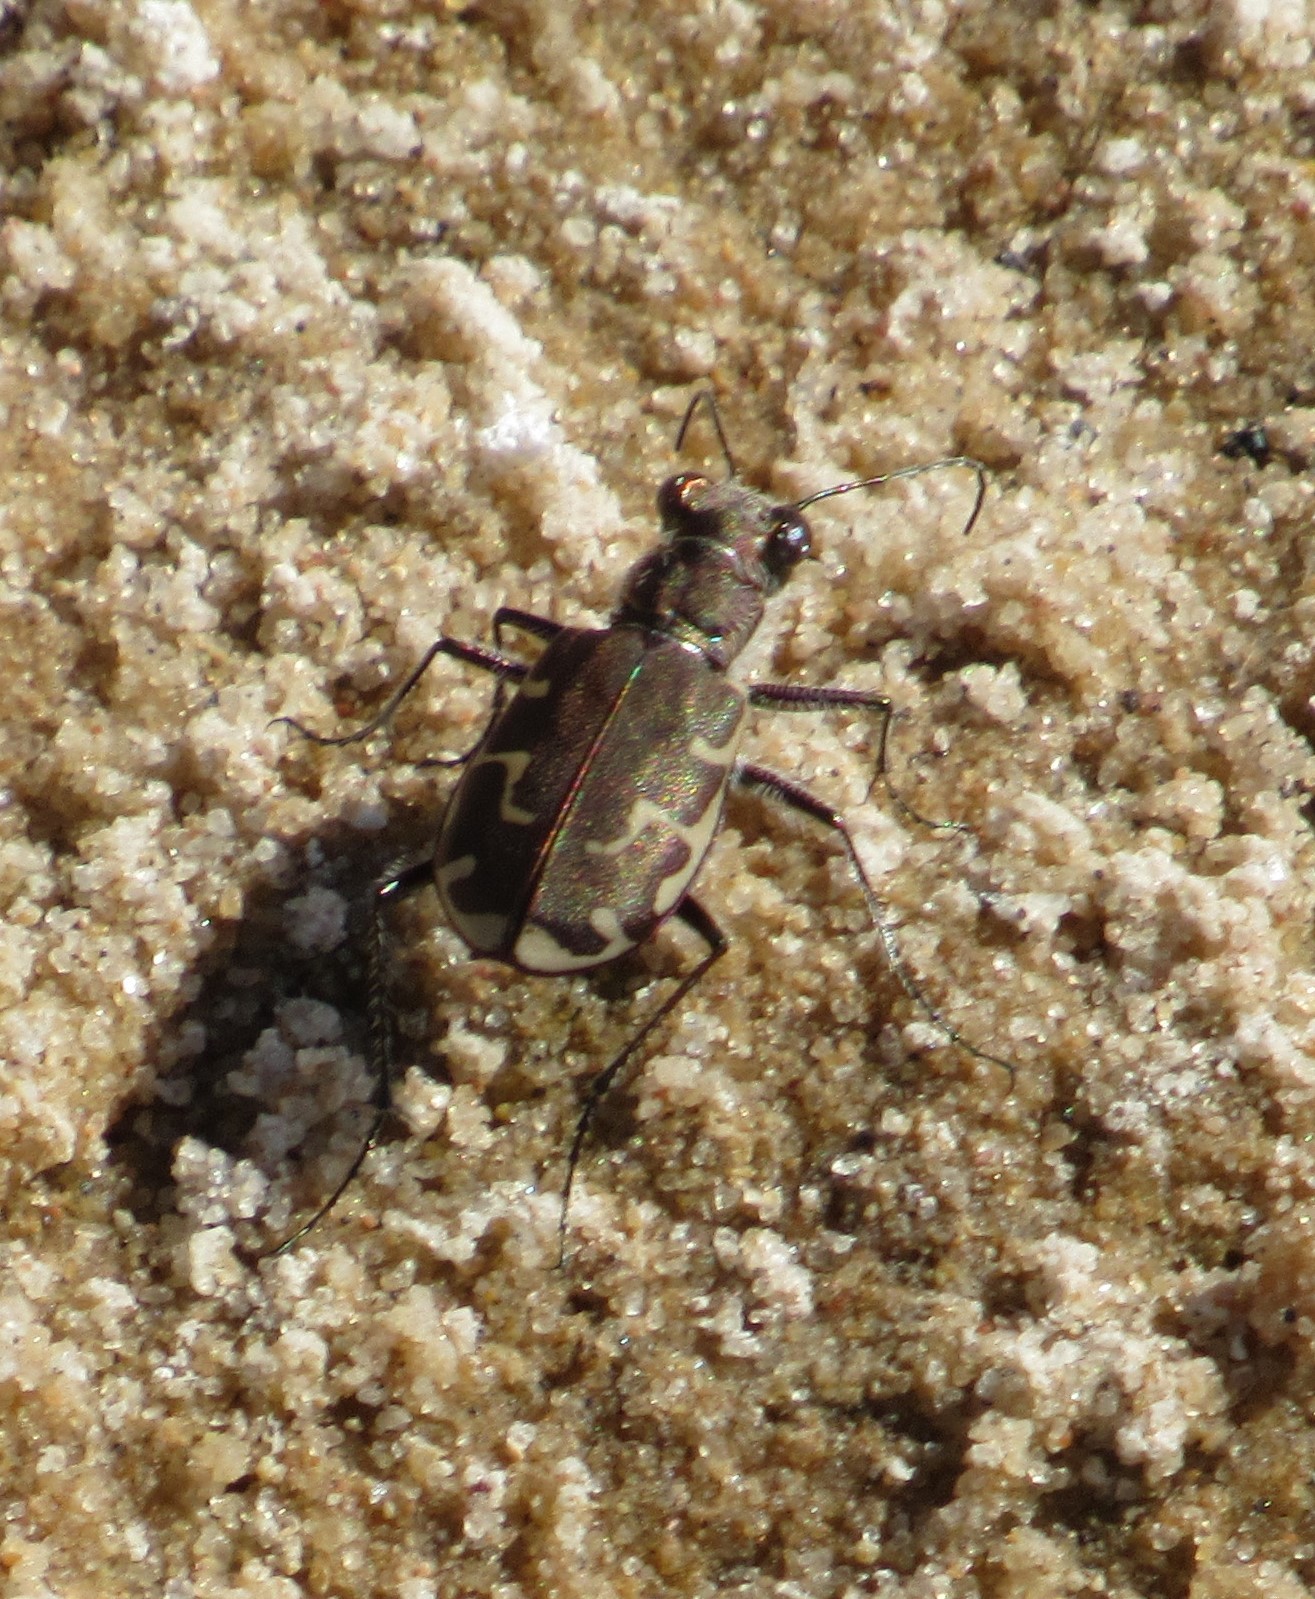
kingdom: Animalia
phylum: Arthropoda
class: Insecta
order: Coleoptera
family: Carabidae
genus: Cicindela
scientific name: Cicindela repanda
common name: Bronzed tiger beetle
